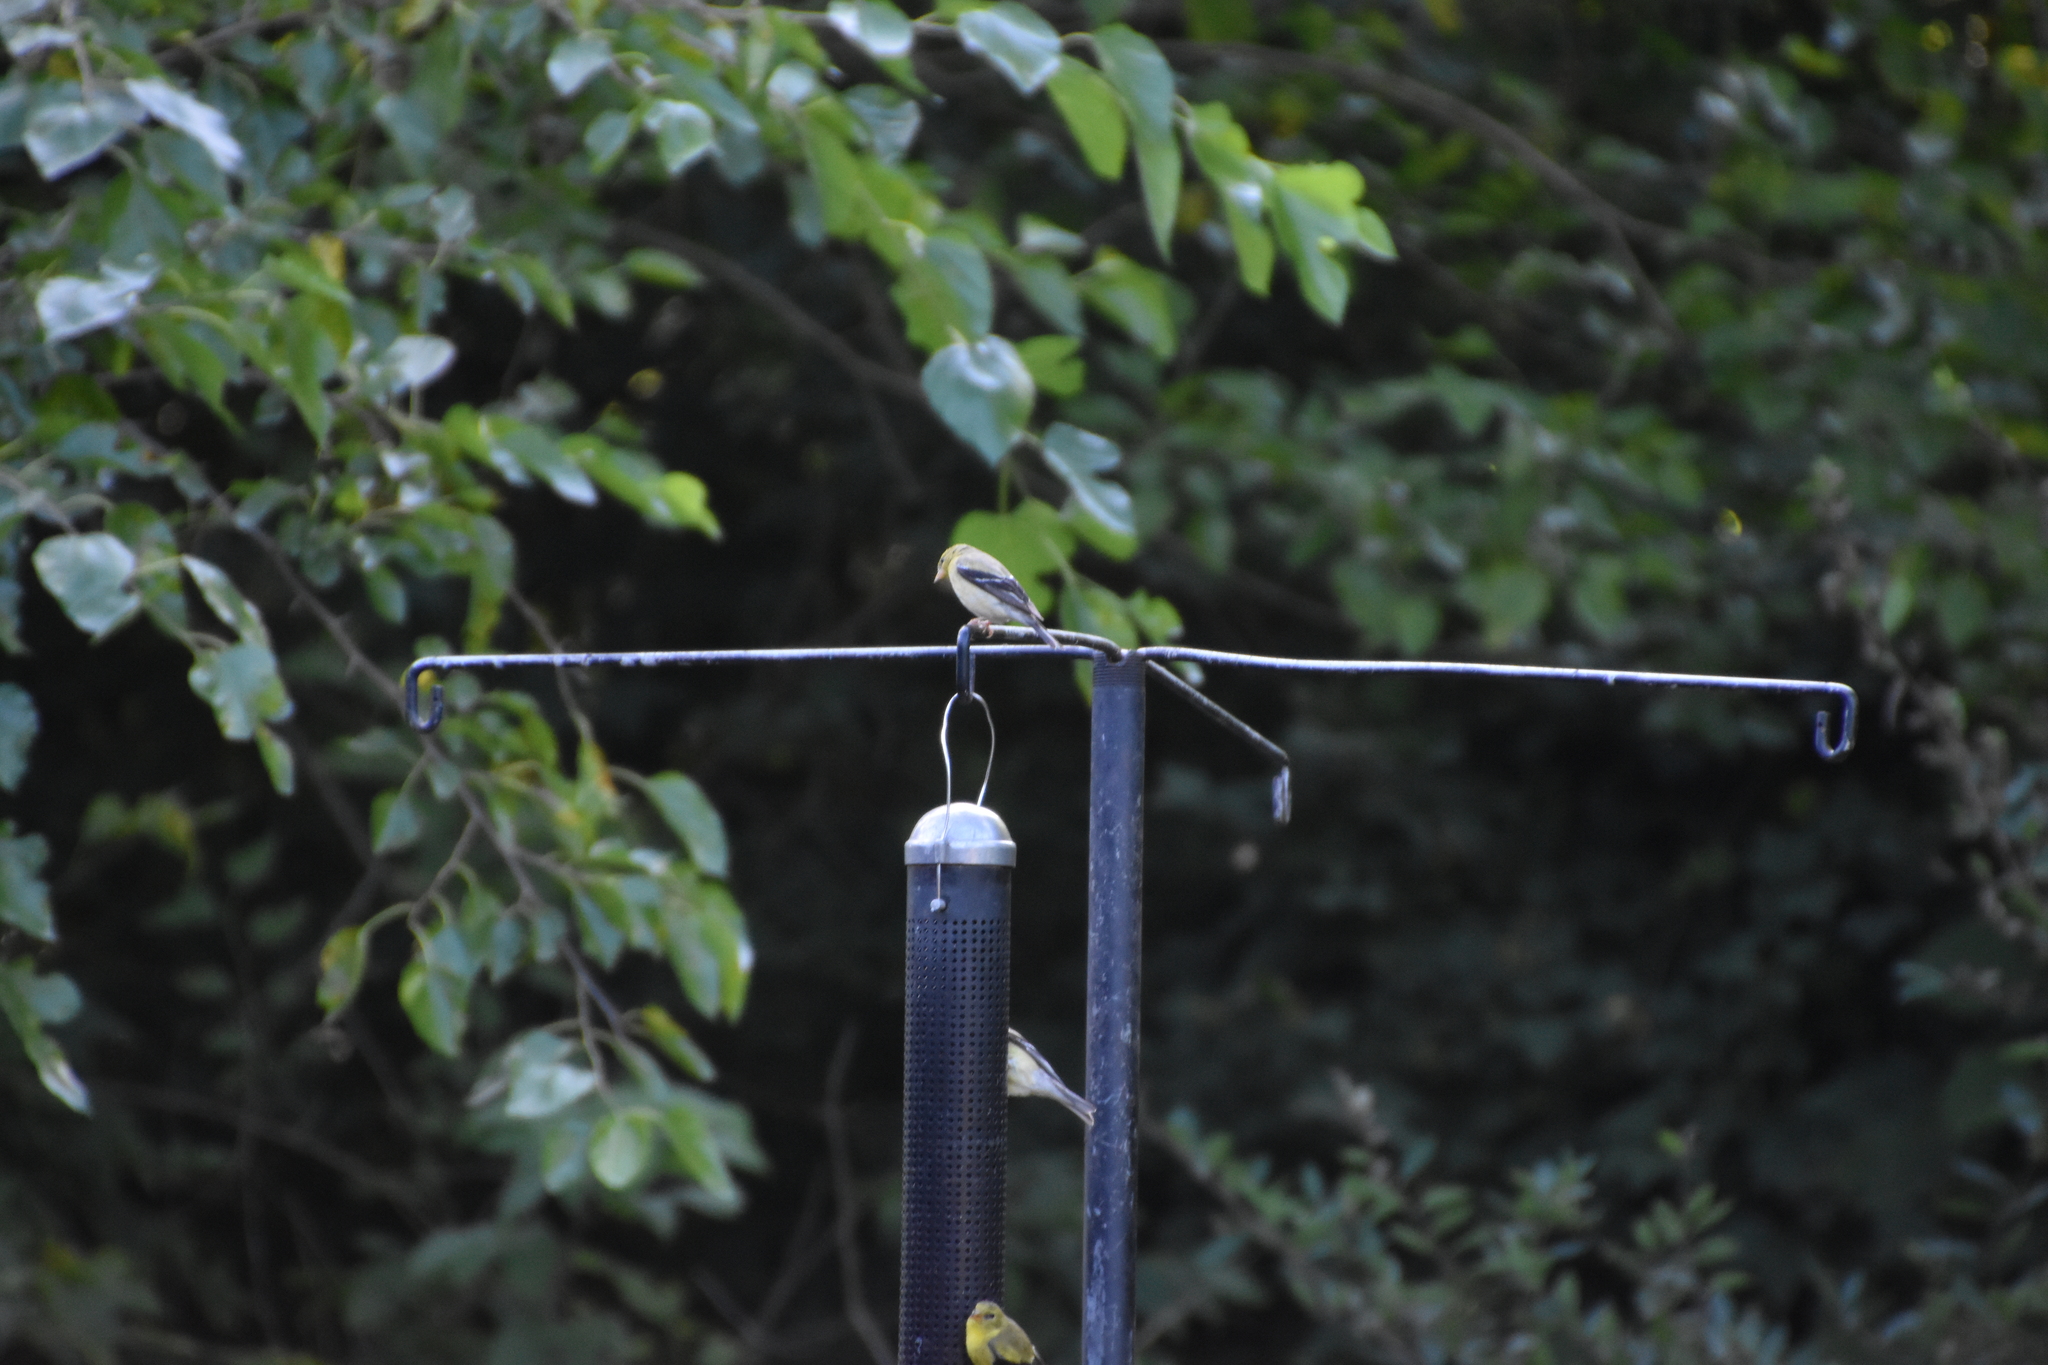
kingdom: Animalia
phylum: Chordata
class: Aves
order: Passeriformes
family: Fringillidae
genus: Spinus
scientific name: Spinus tristis
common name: American goldfinch
